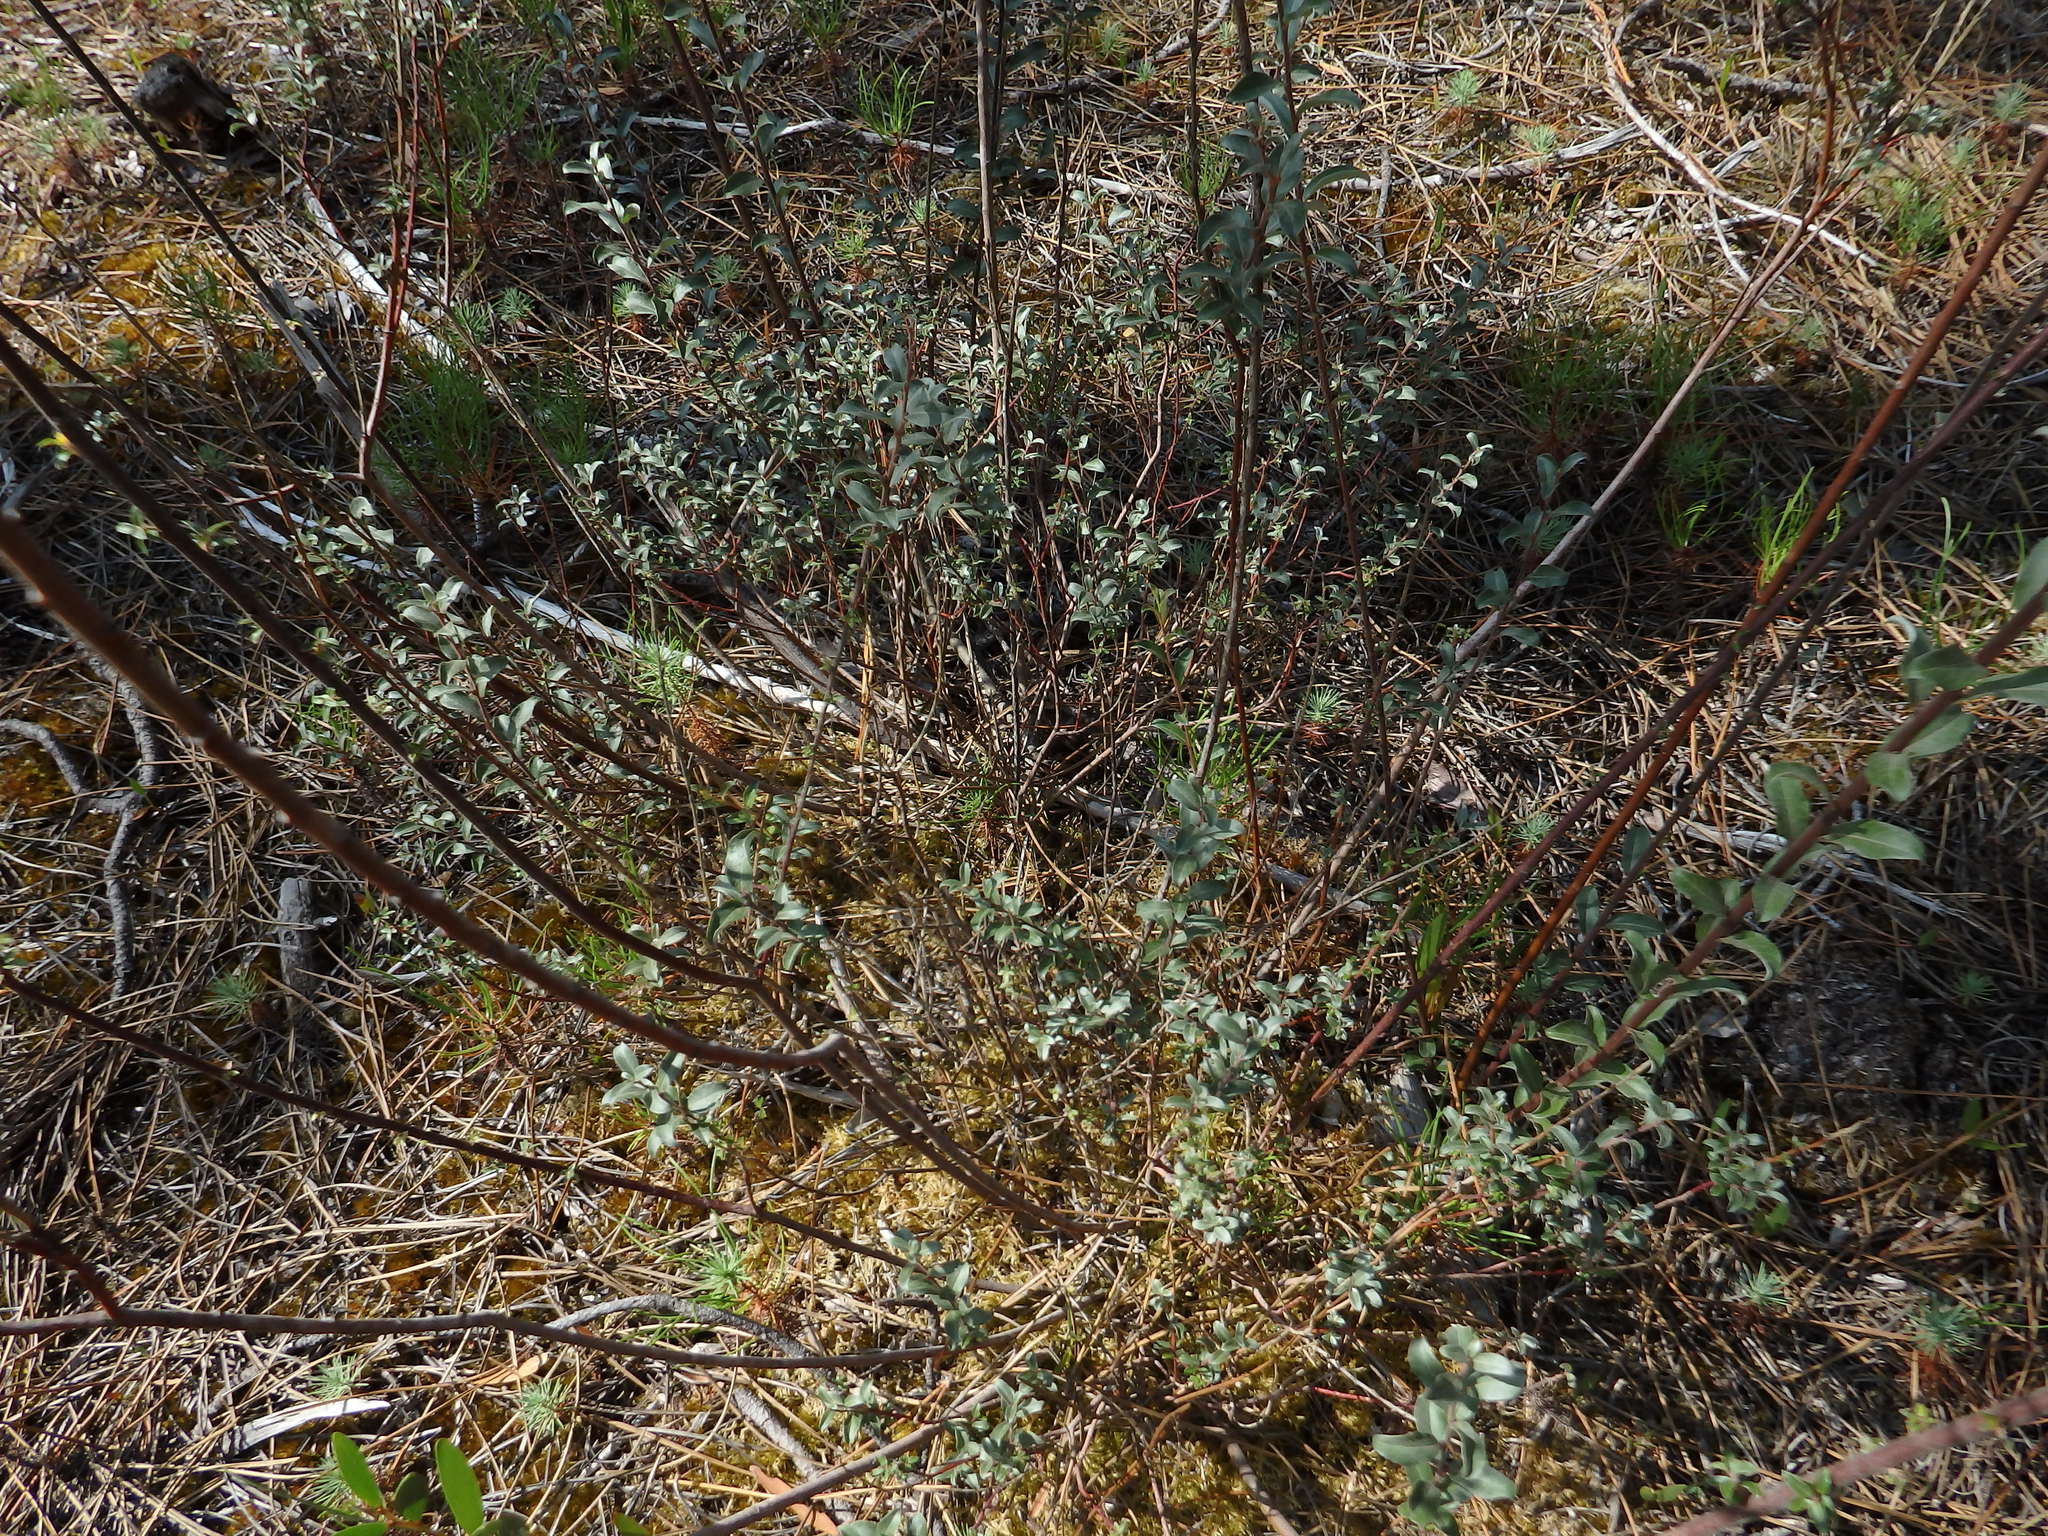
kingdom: Plantae
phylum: Tracheophyta
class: Magnoliopsida
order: Malpighiales
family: Salicaceae
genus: Salix
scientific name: Salix repens
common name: Creeping willow
